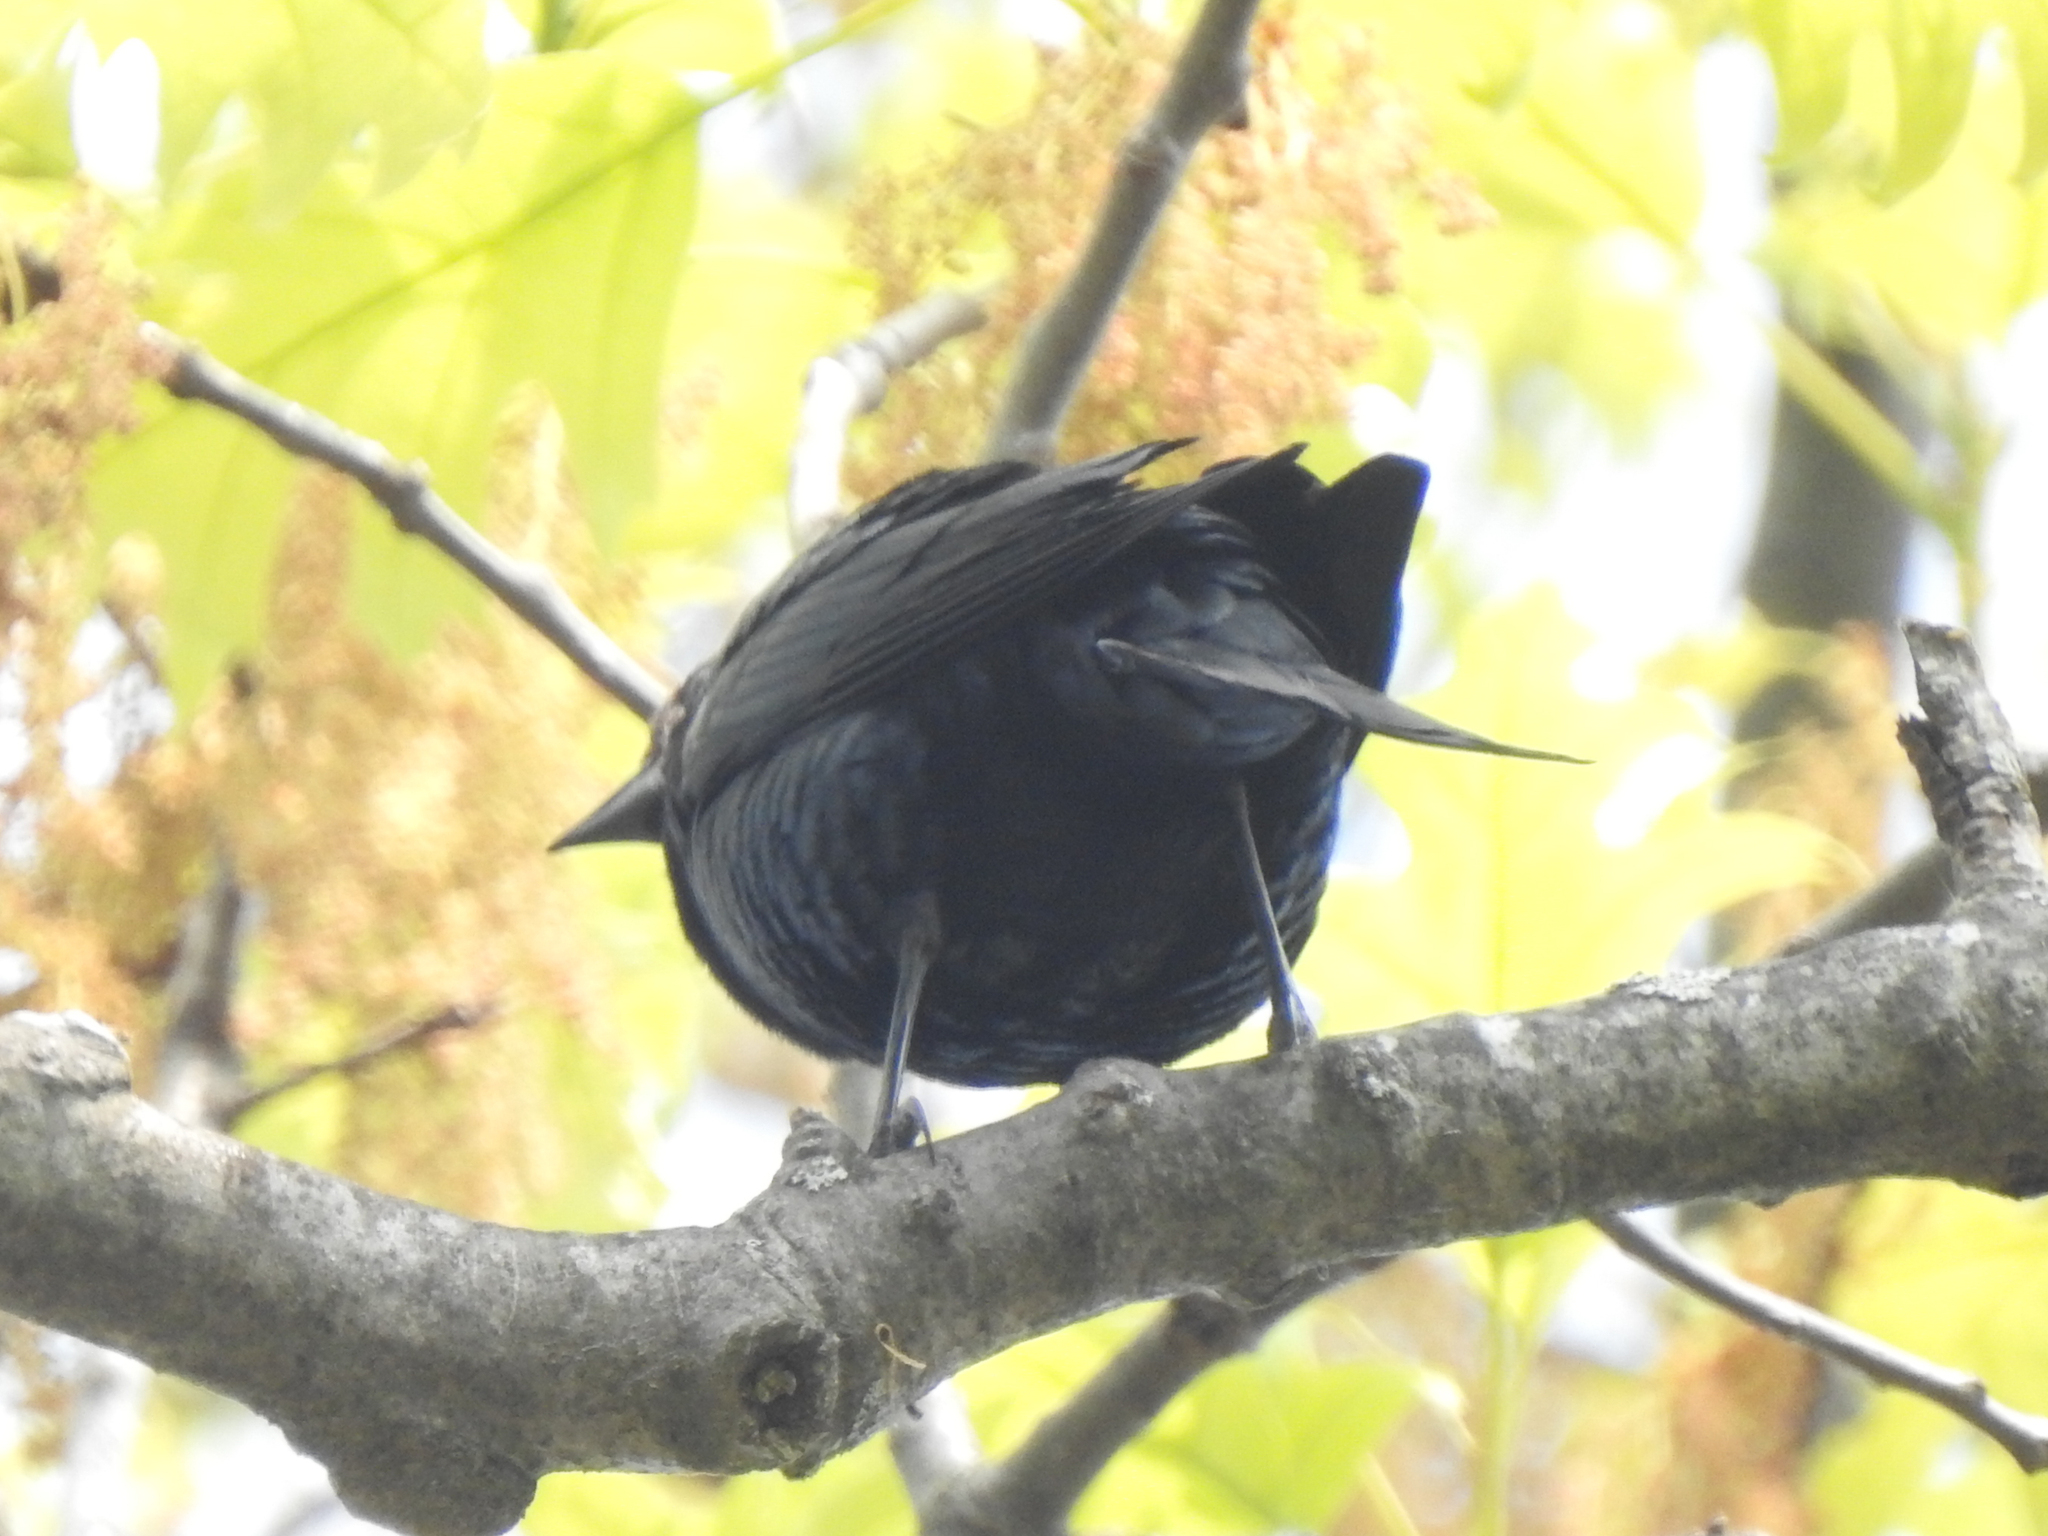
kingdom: Animalia
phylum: Chordata
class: Aves
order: Passeriformes
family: Icteridae
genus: Molothrus
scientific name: Molothrus ater
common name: Brown-headed cowbird
